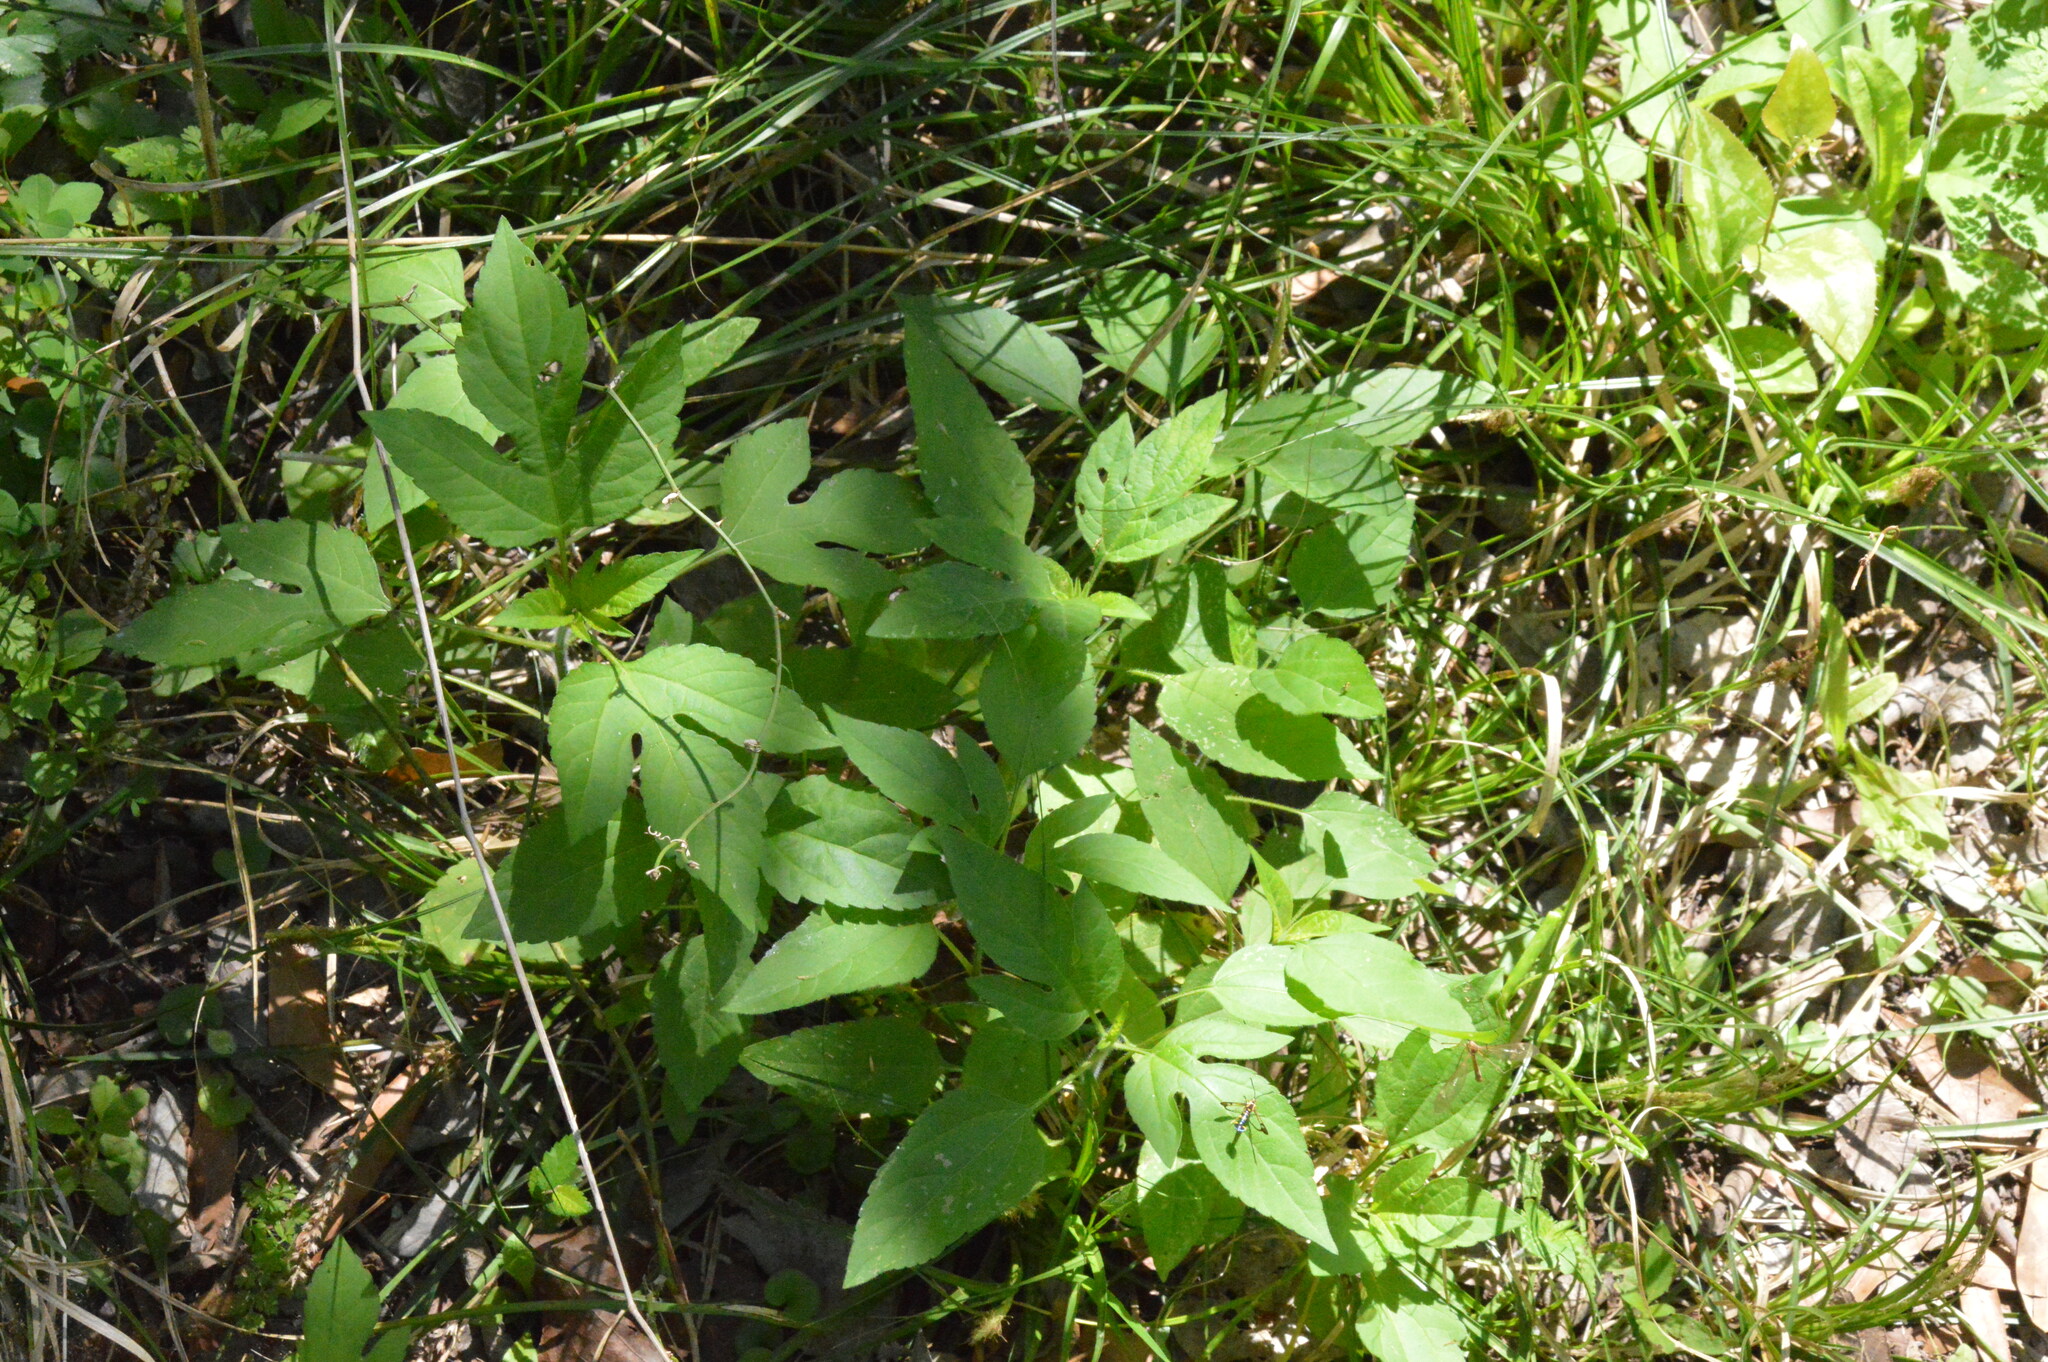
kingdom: Plantae
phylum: Tracheophyta
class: Magnoliopsida
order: Asterales
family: Asteraceae
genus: Ambrosia
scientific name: Ambrosia trifida
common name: Giant ragweed
